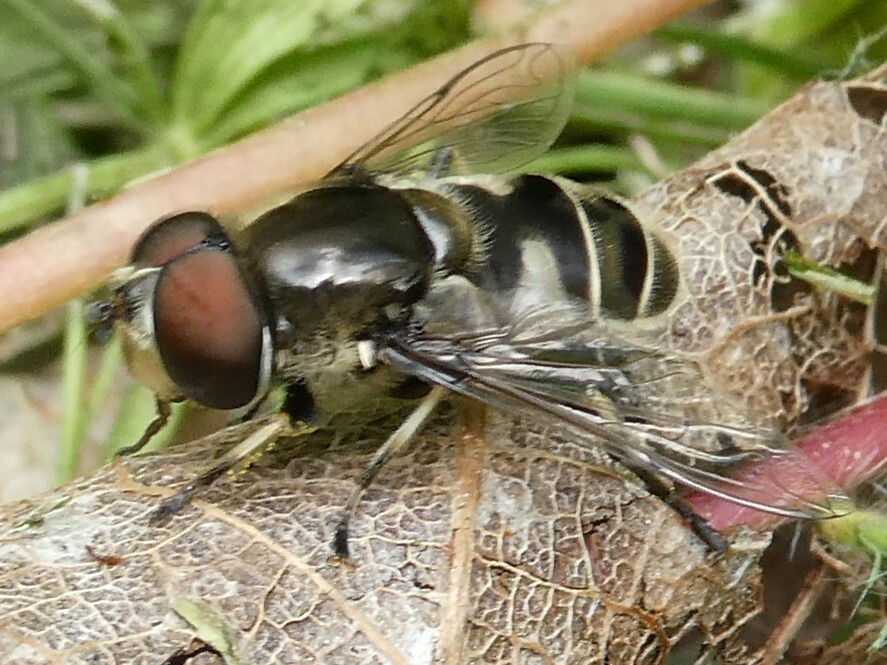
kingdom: Animalia
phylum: Arthropoda
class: Insecta
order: Diptera
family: Syrphidae
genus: Eristalis
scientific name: Eristalis dimidiata
